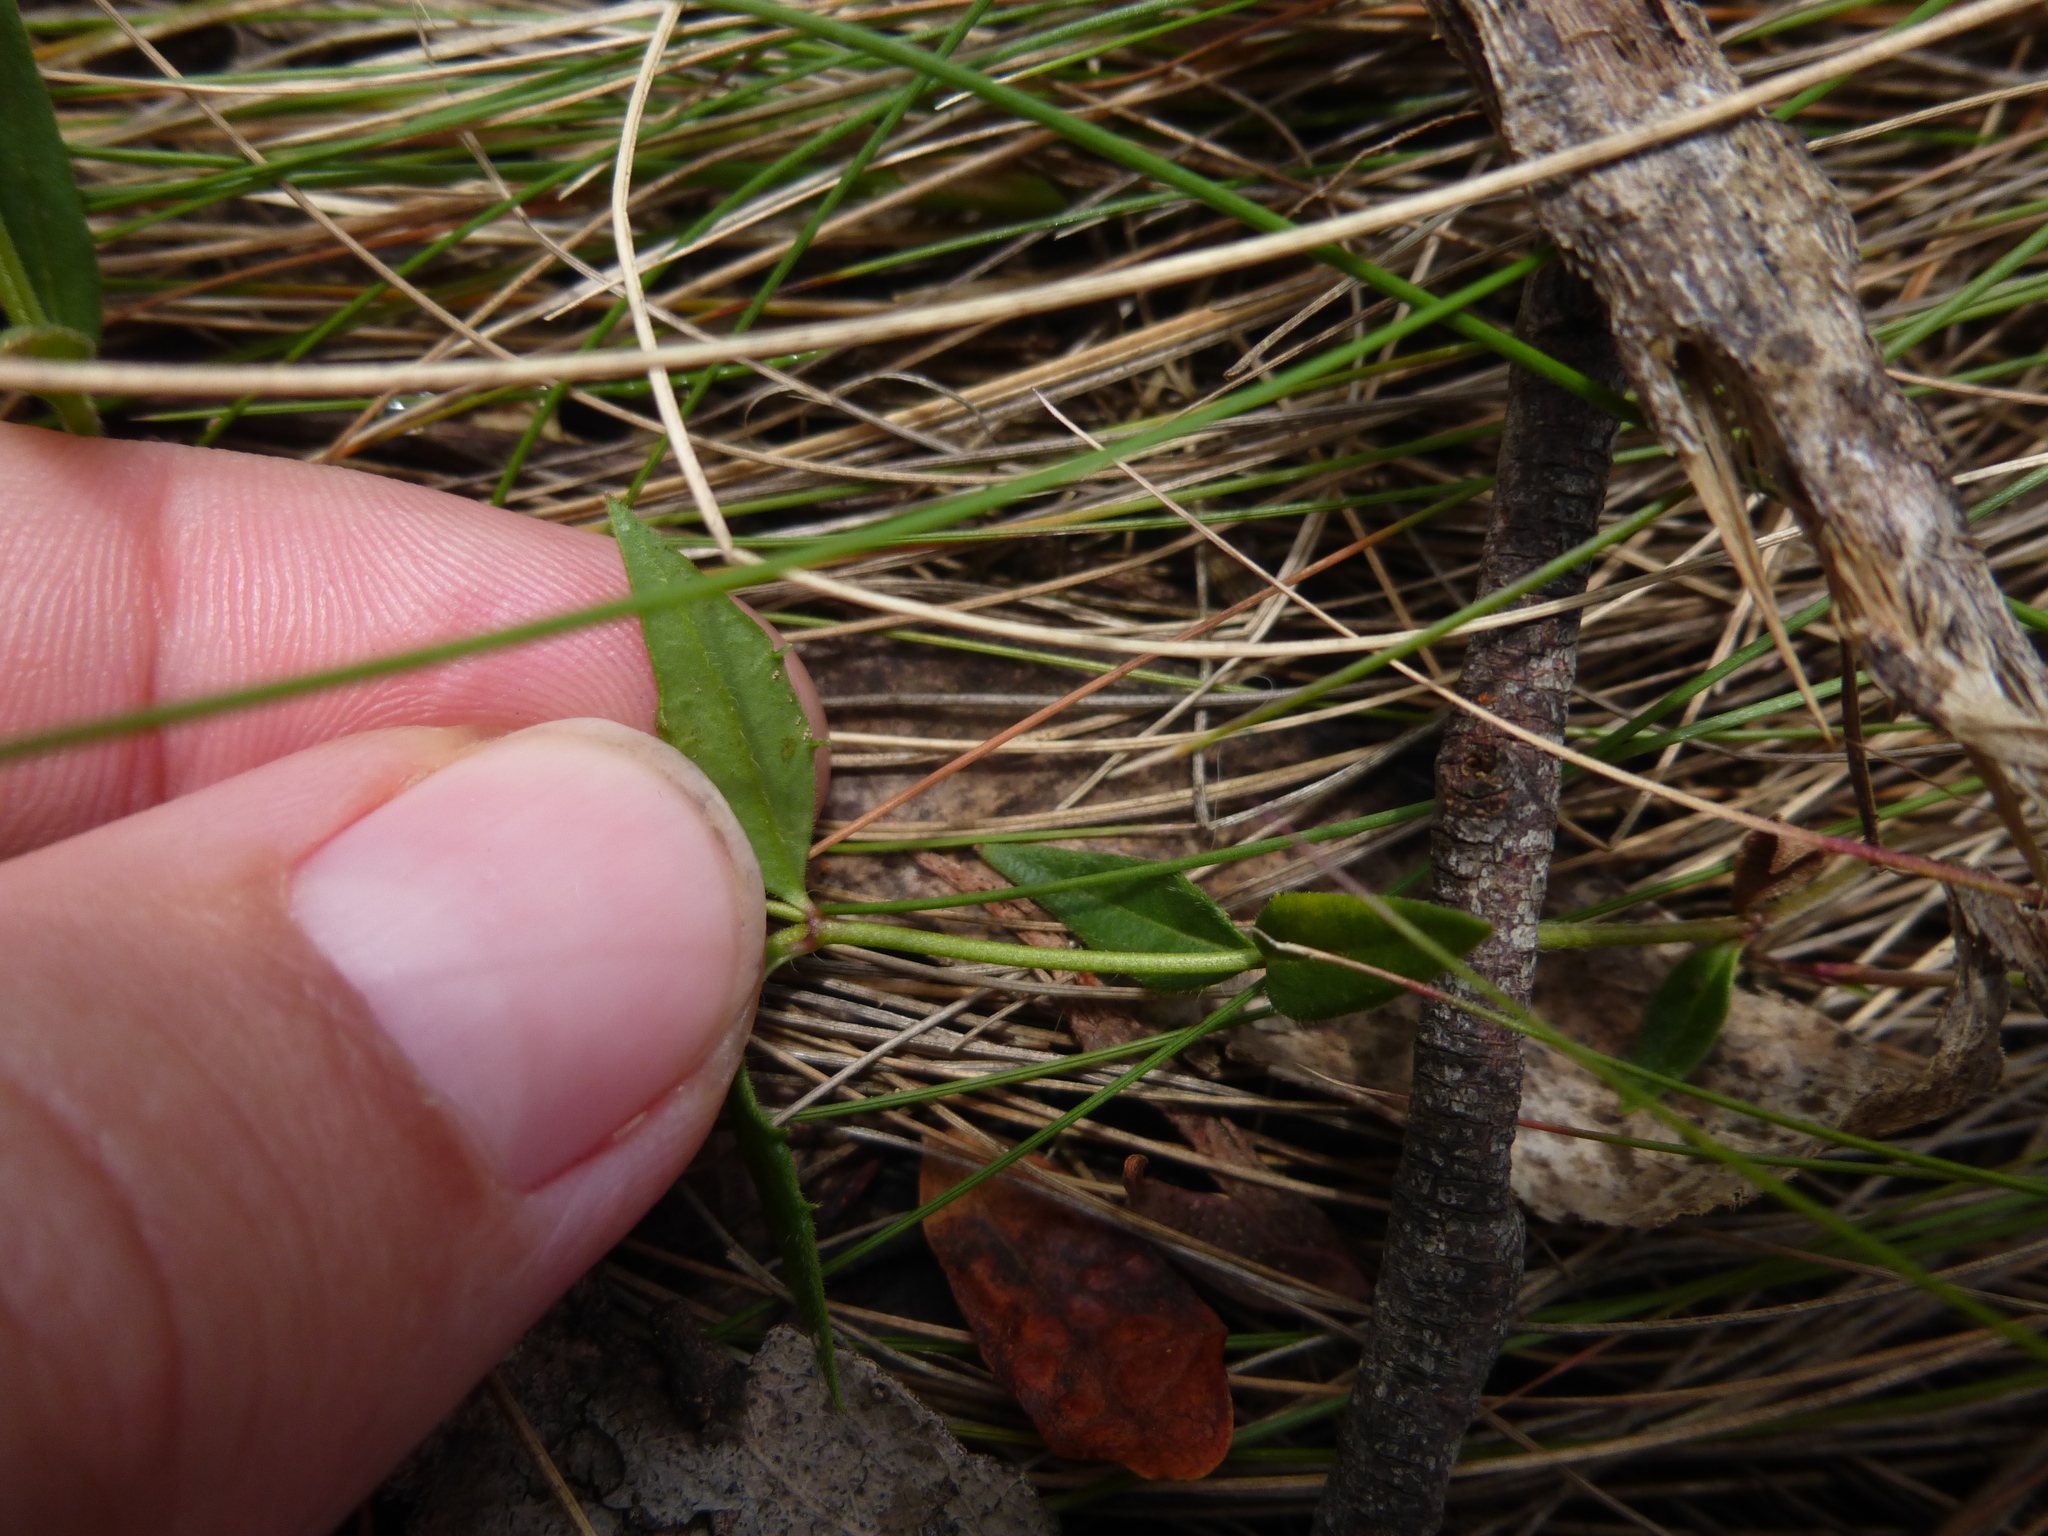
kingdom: Plantae
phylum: Tracheophyta
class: Magnoliopsida
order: Lamiales
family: Plantaginaceae
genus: Veronica
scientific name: Veronica gracilis
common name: Slender speedwell
